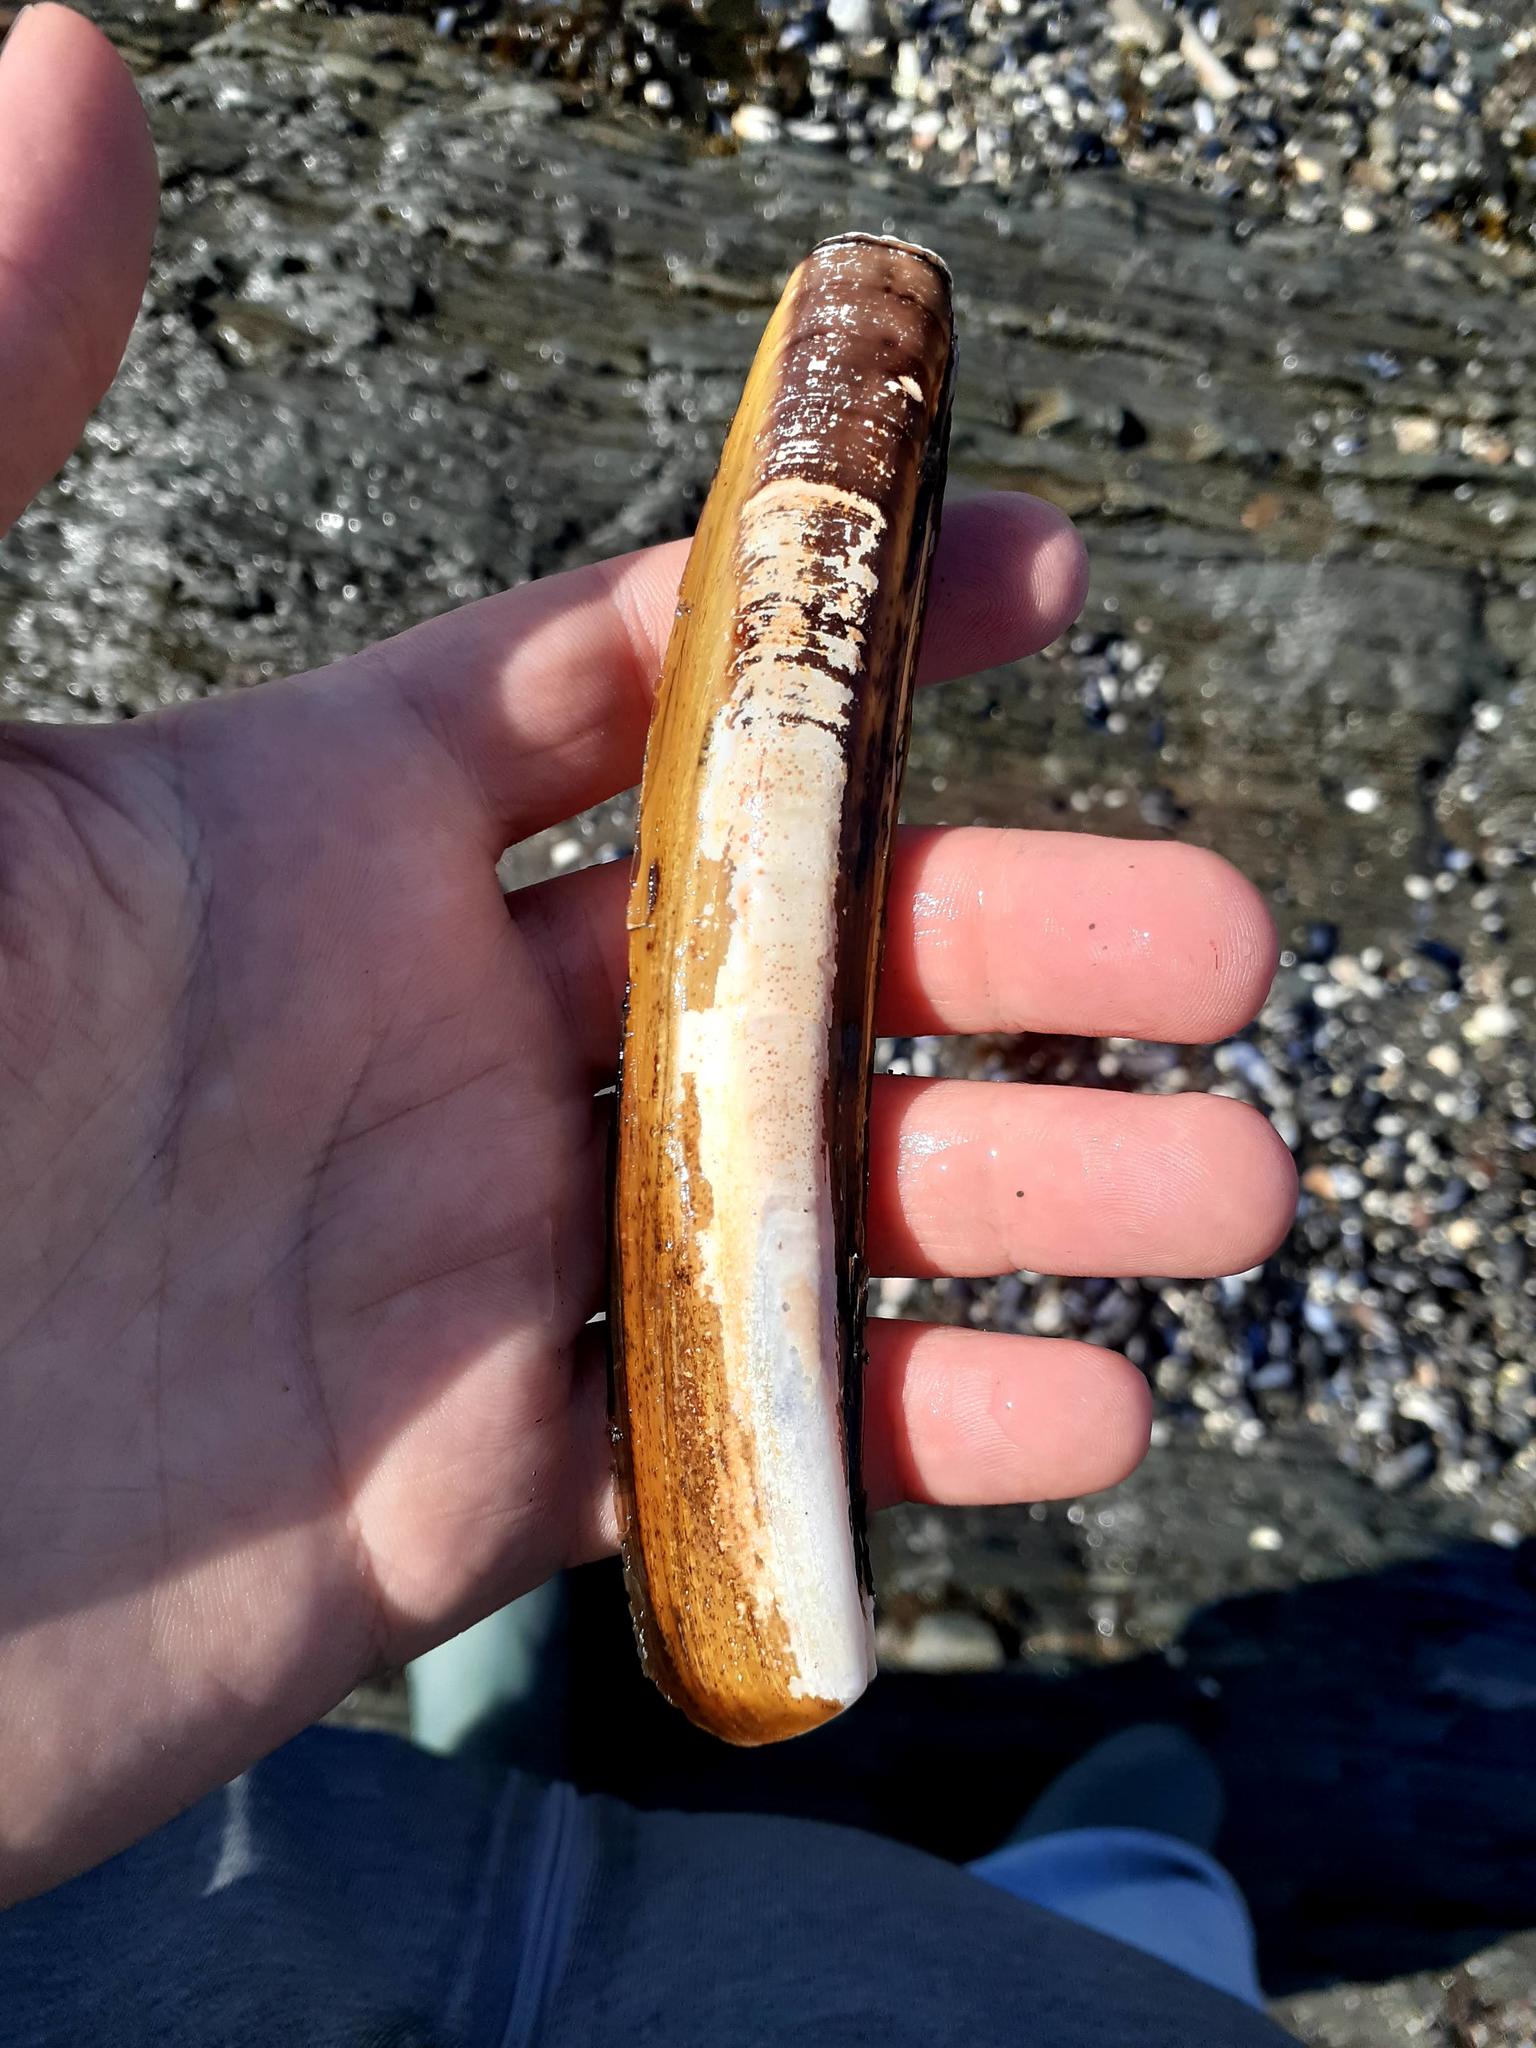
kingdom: Animalia
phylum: Mollusca
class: Bivalvia
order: Adapedonta
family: Pharidae
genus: Ensis
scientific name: Ensis leei
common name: American jack knife clam
